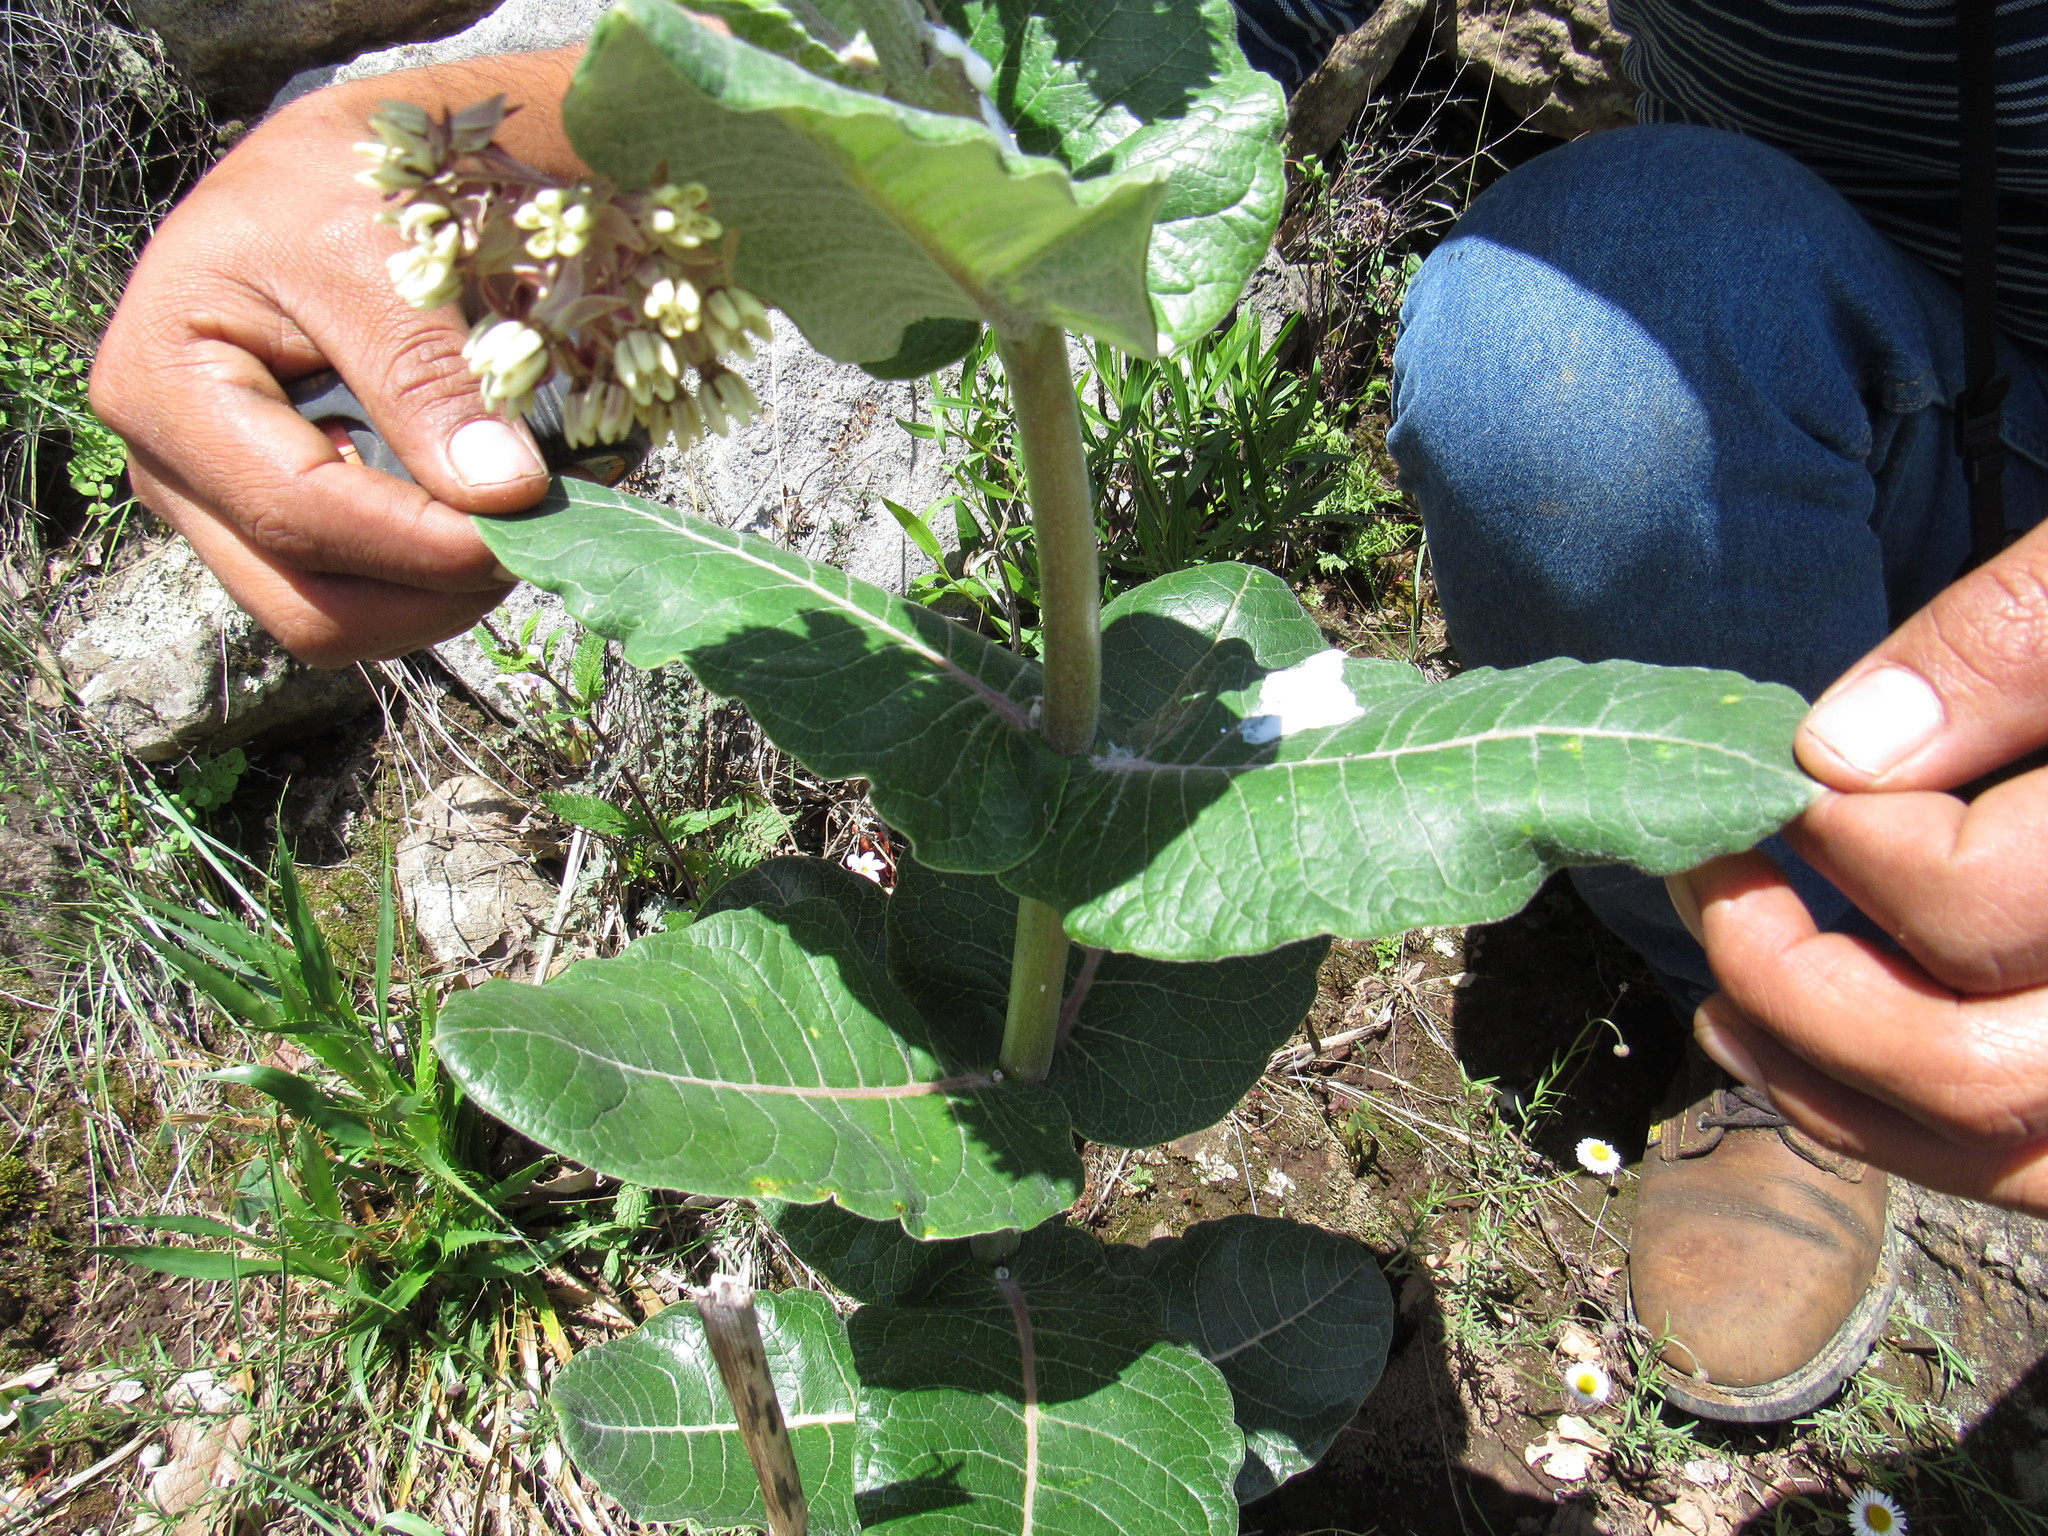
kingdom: Plantae
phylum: Tracheophyta
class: Magnoliopsida
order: Gentianales
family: Apocynaceae
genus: Asclepias
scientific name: Asclepias otarioides
